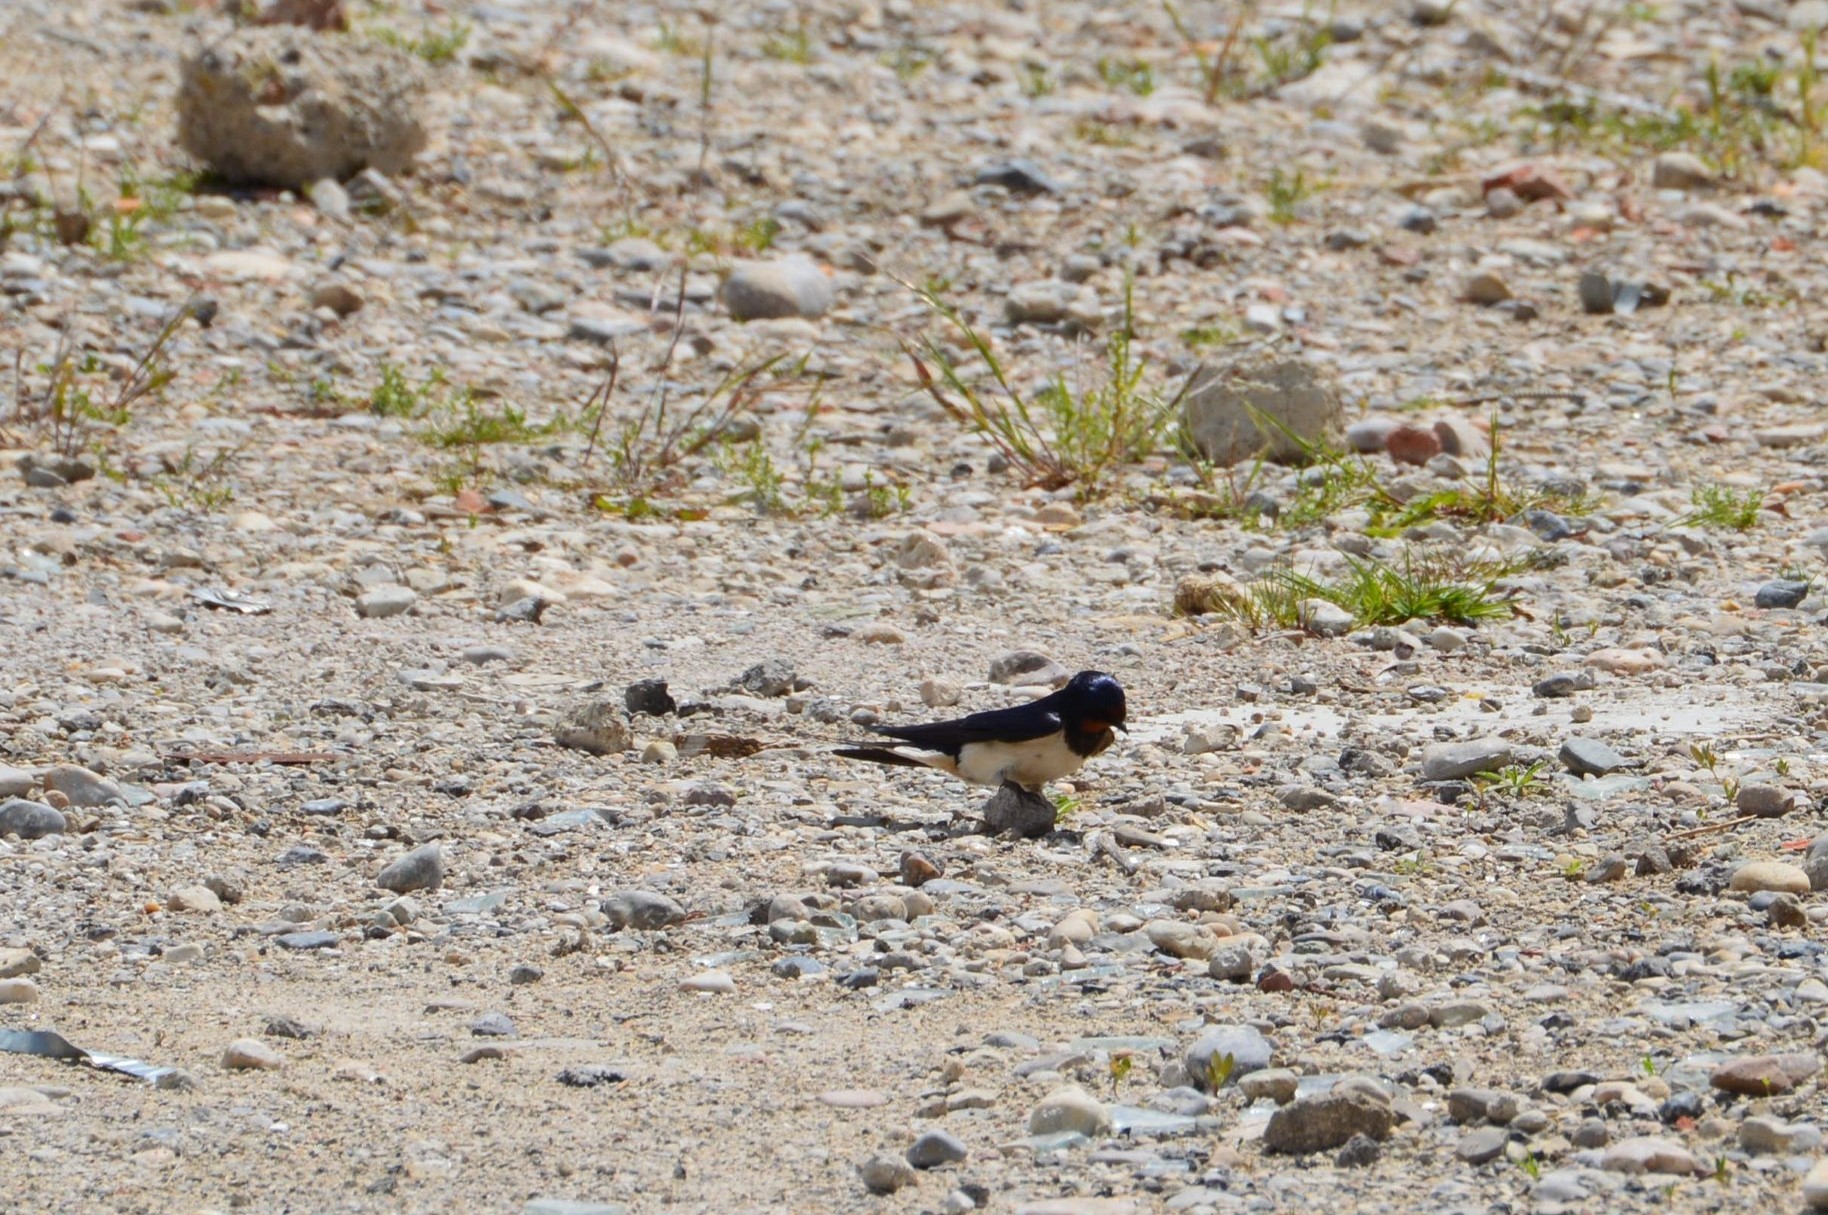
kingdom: Animalia
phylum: Chordata
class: Aves
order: Passeriformes
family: Hirundinidae
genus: Hirundo
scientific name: Hirundo rustica
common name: Barn swallow
